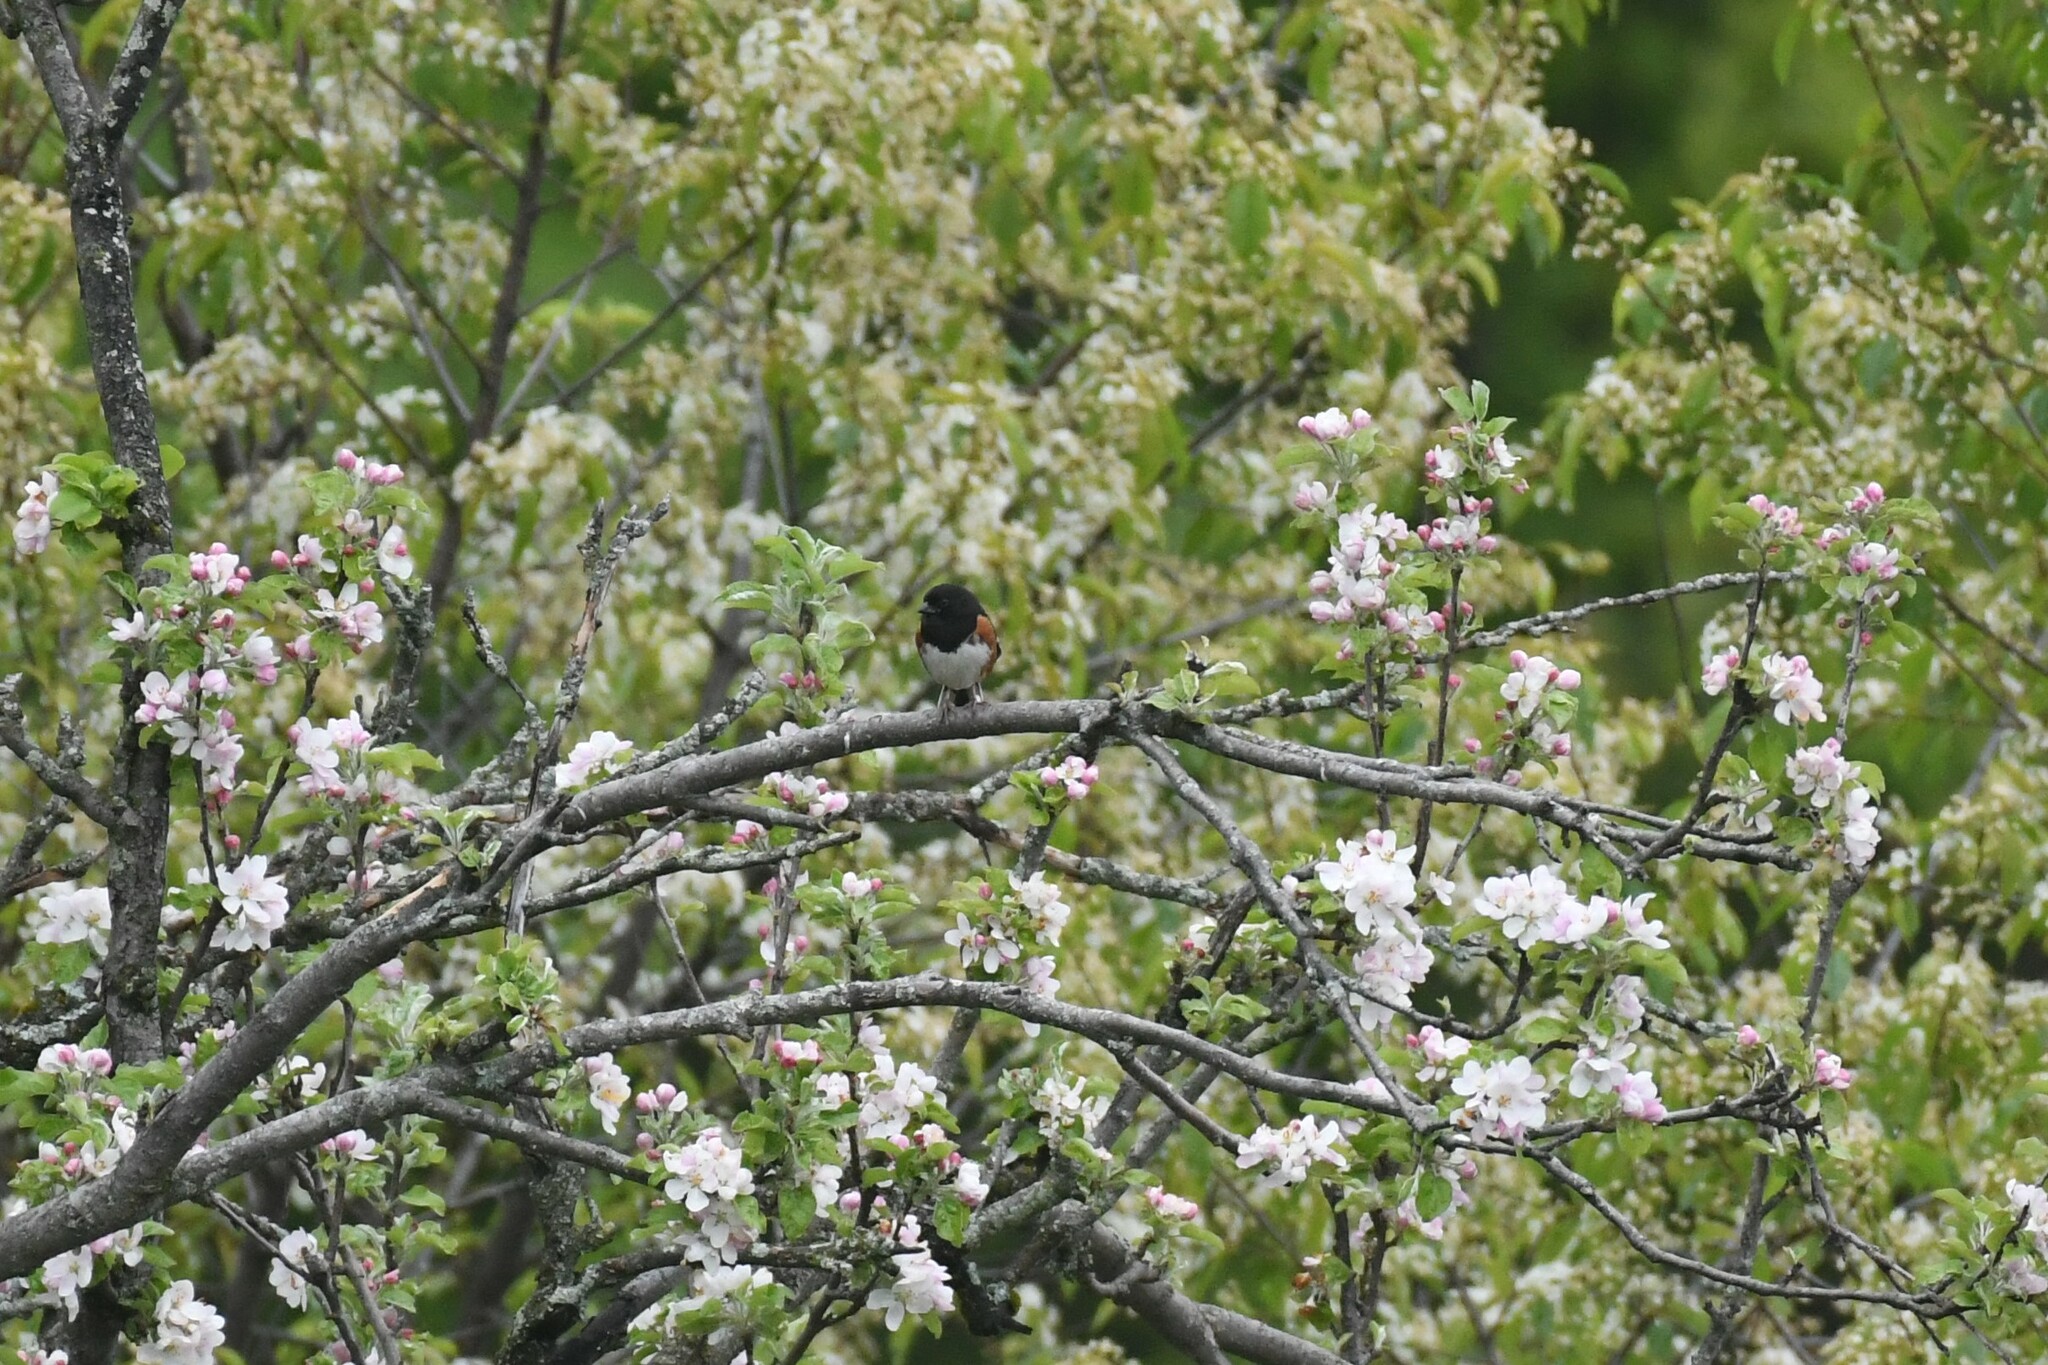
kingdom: Animalia
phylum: Chordata
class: Aves
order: Passeriformes
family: Passerellidae
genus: Pipilo
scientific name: Pipilo erythrophthalmus
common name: Eastern towhee
